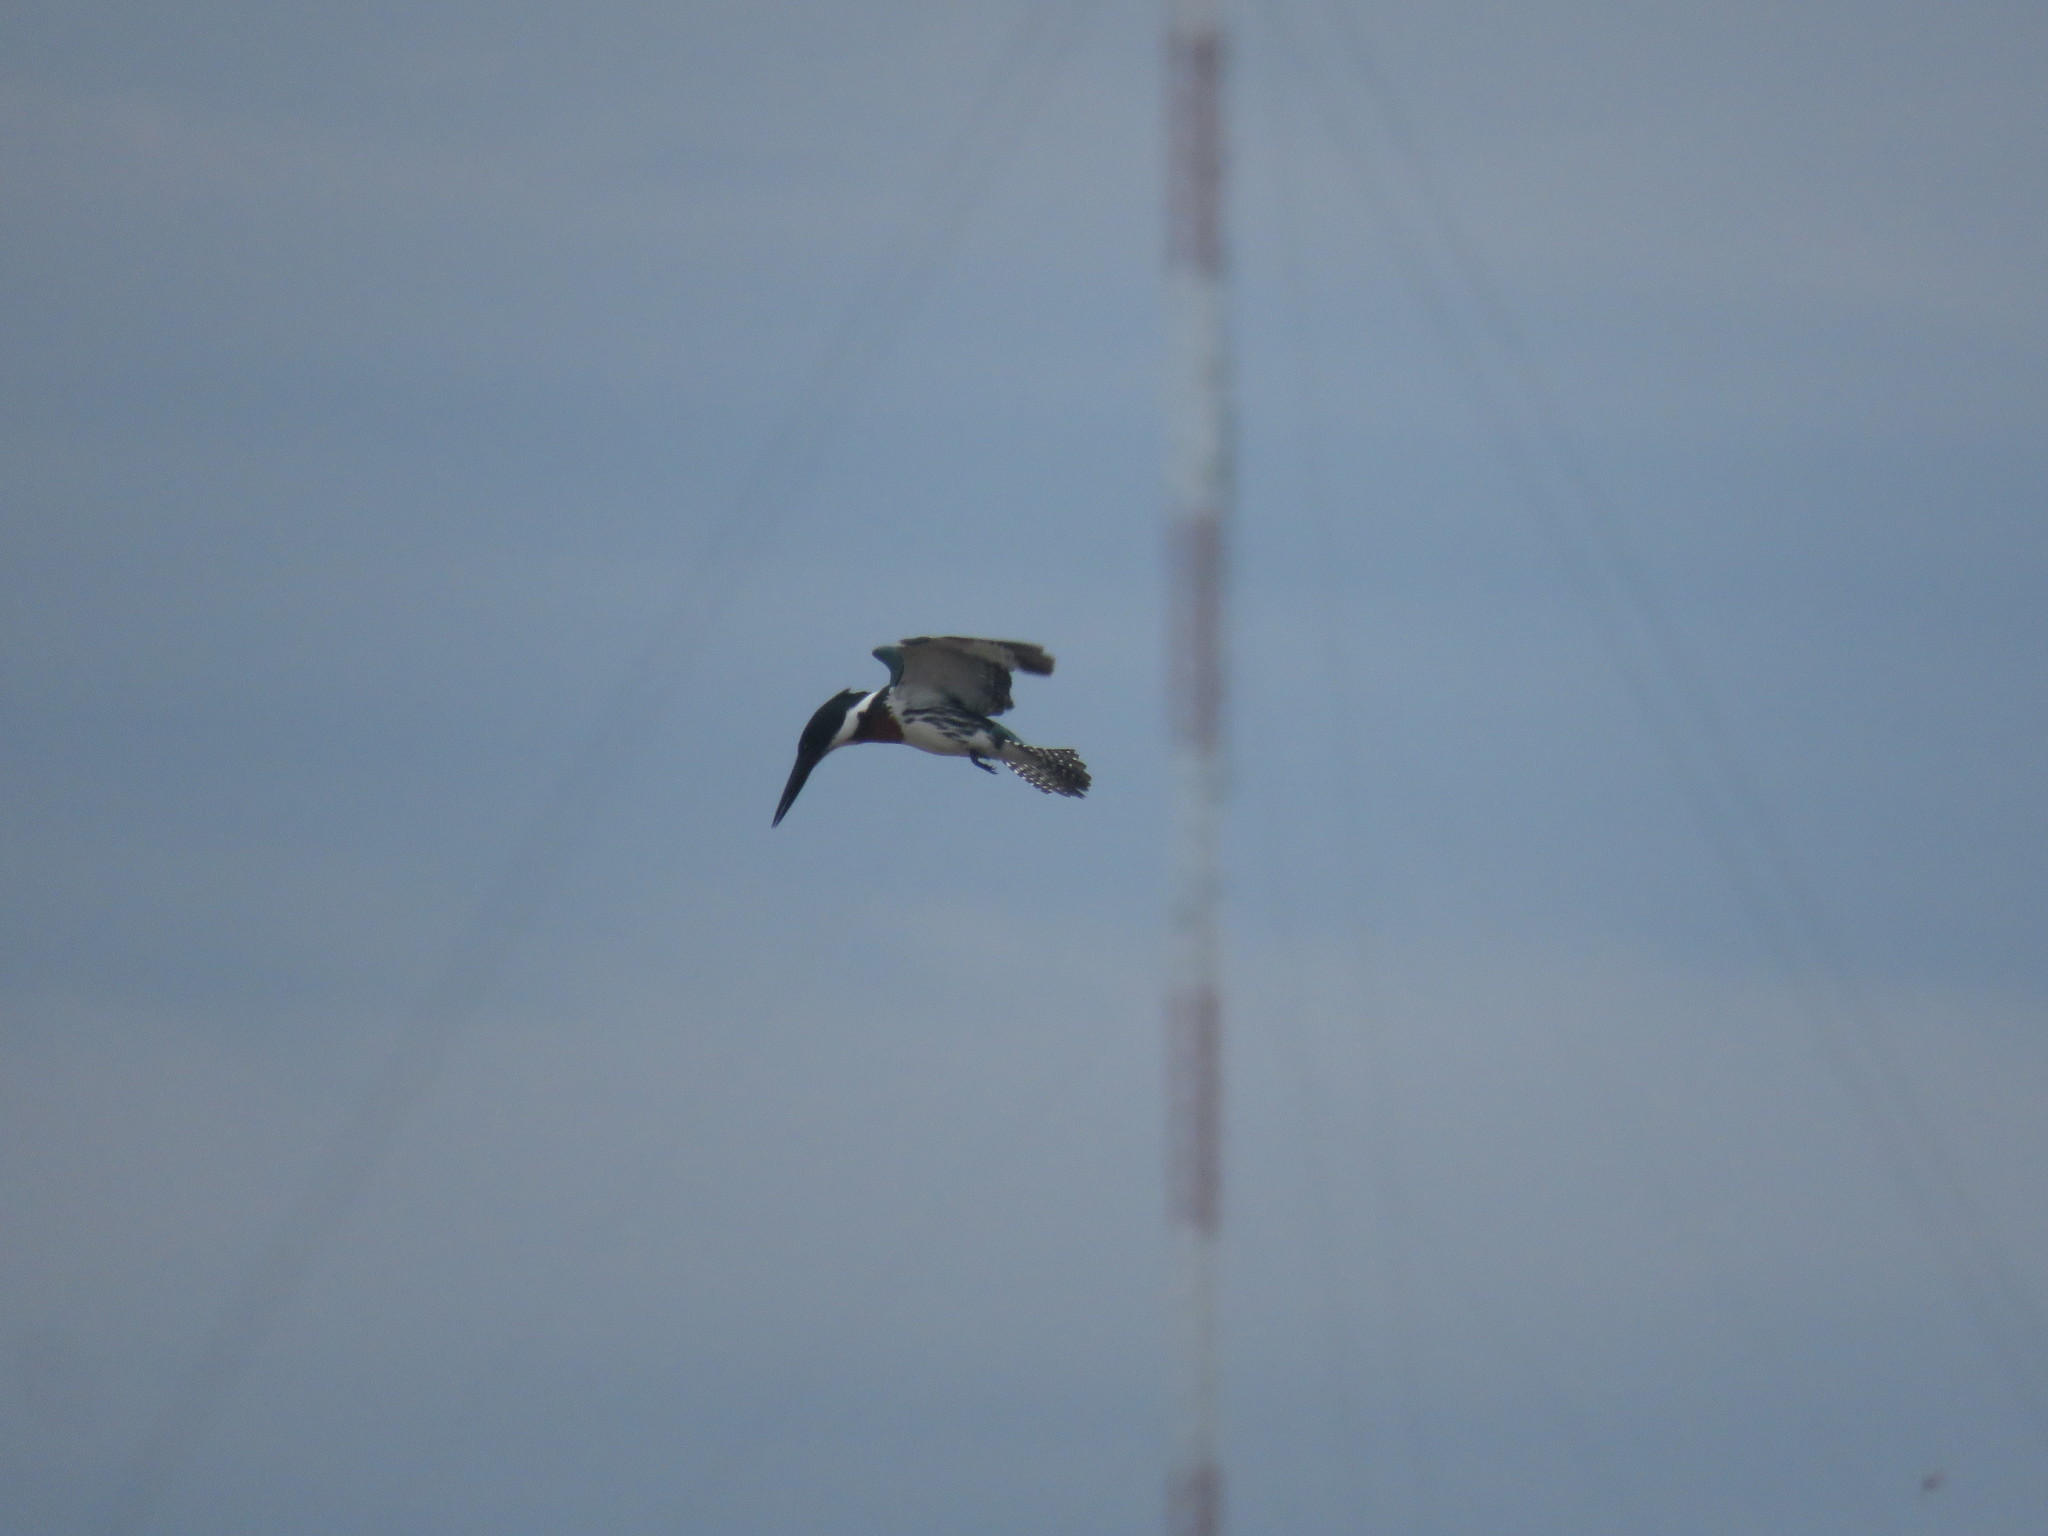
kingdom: Animalia
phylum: Chordata
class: Aves
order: Coraciiformes
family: Alcedinidae
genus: Chloroceryle
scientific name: Chloroceryle amazona
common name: Amazon kingfisher
